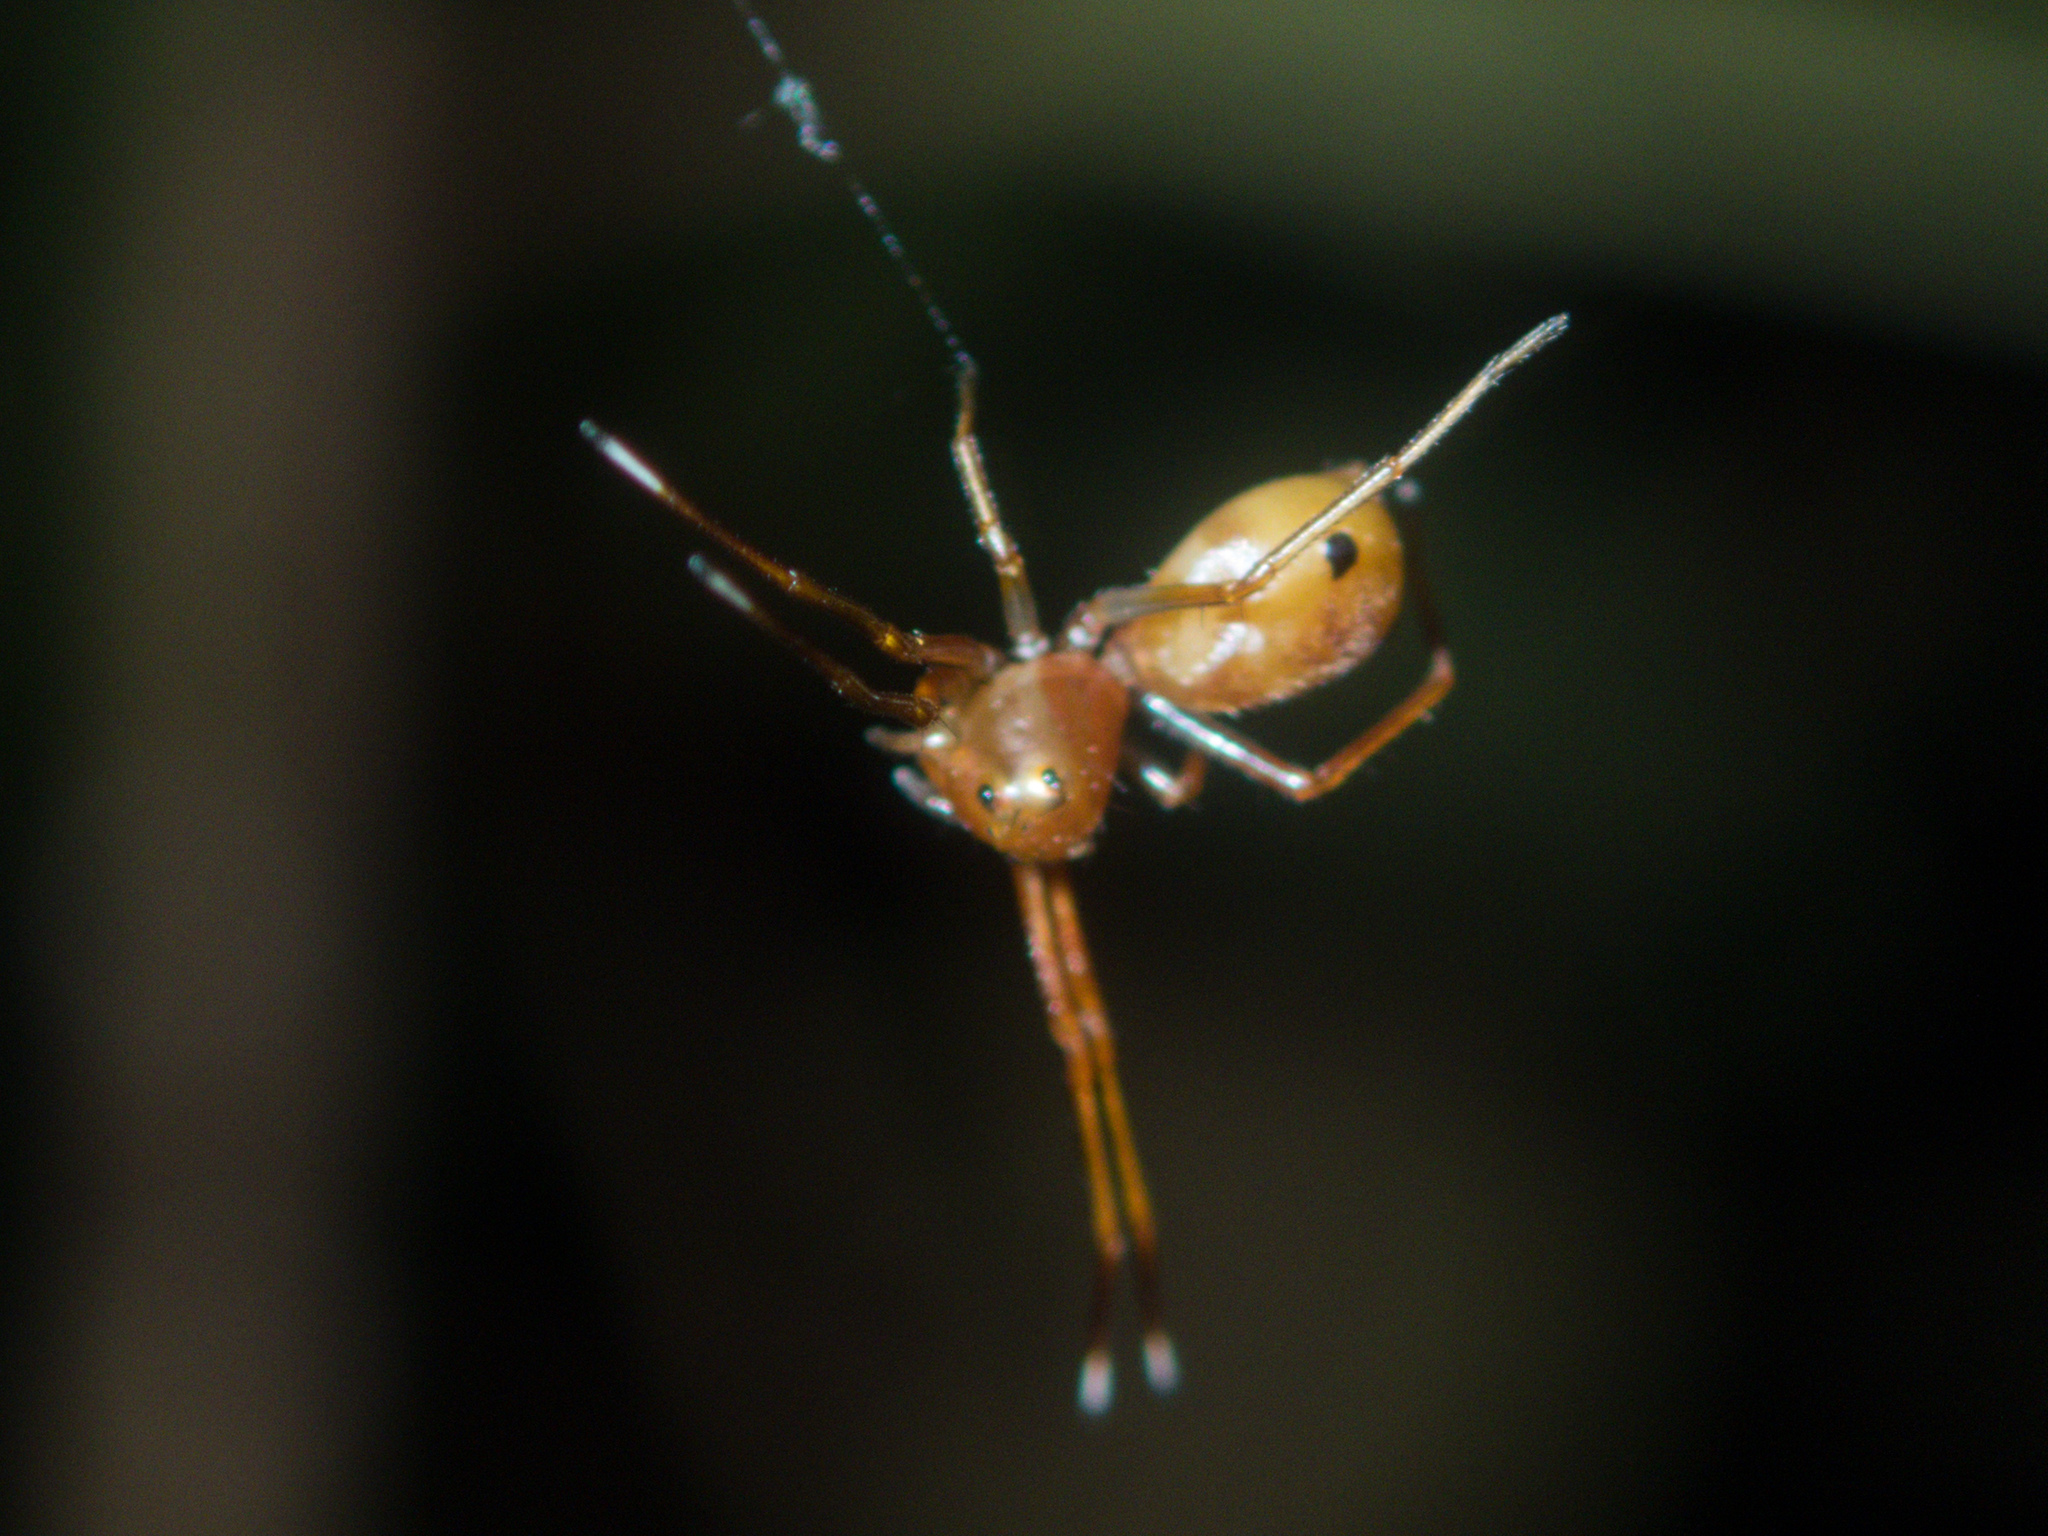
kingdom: Animalia
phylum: Arthropoda
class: Arachnida
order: Araneae
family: Thomisidae
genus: Amyciaea
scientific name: Amyciaea forticeps
